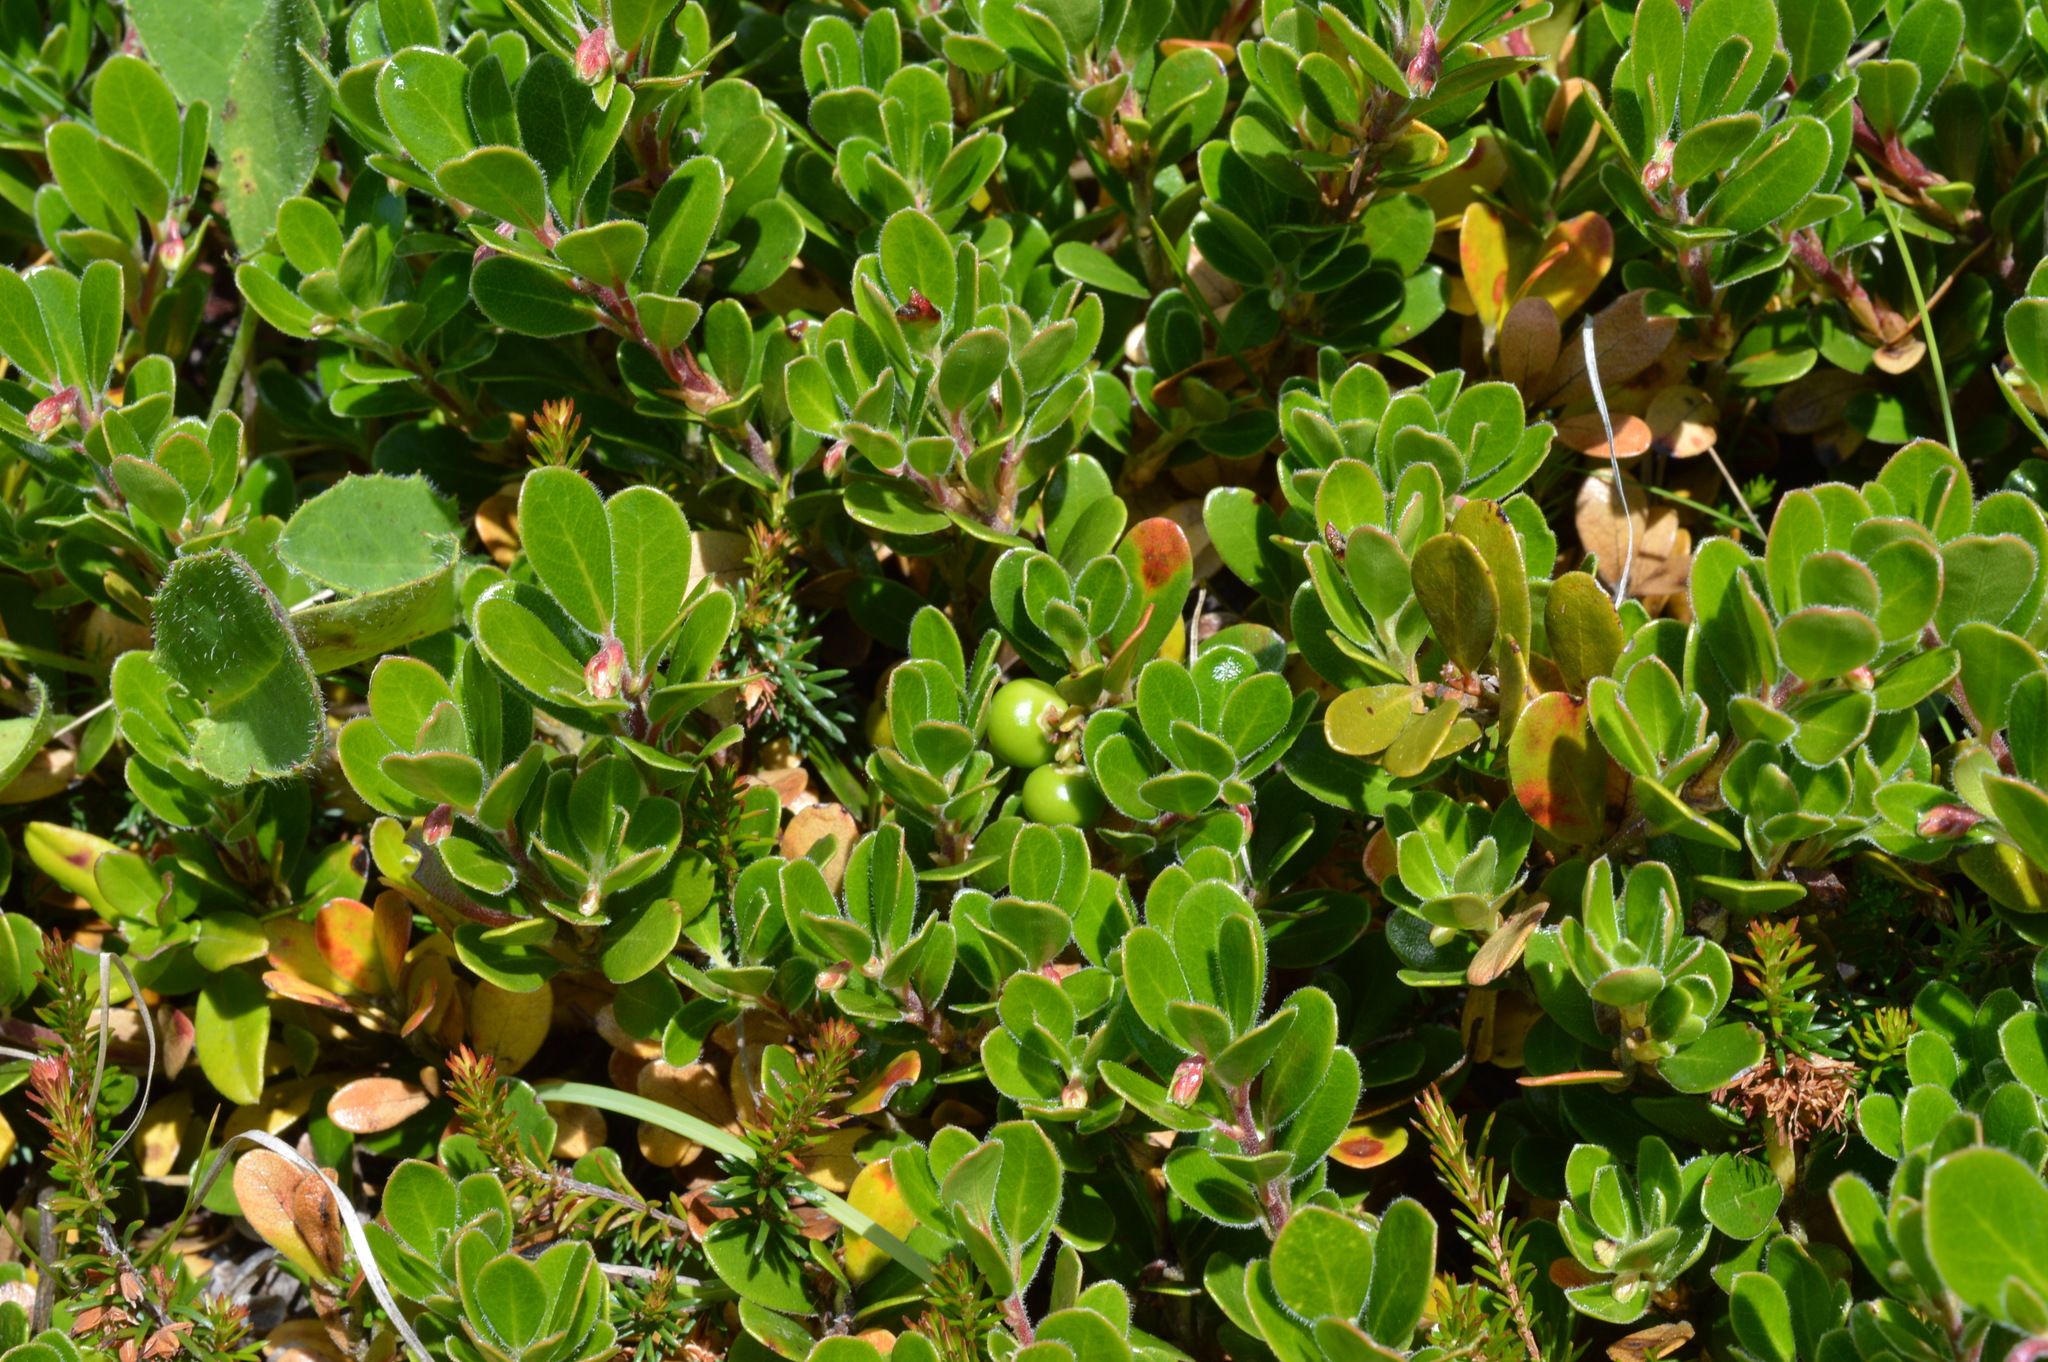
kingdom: Plantae
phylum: Tracheophyta
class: Magnoliopsida
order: Ericales
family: Ericaceae
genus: Arctostaphylos
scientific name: Arctostaphylos uva-ursi
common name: Bearberry
